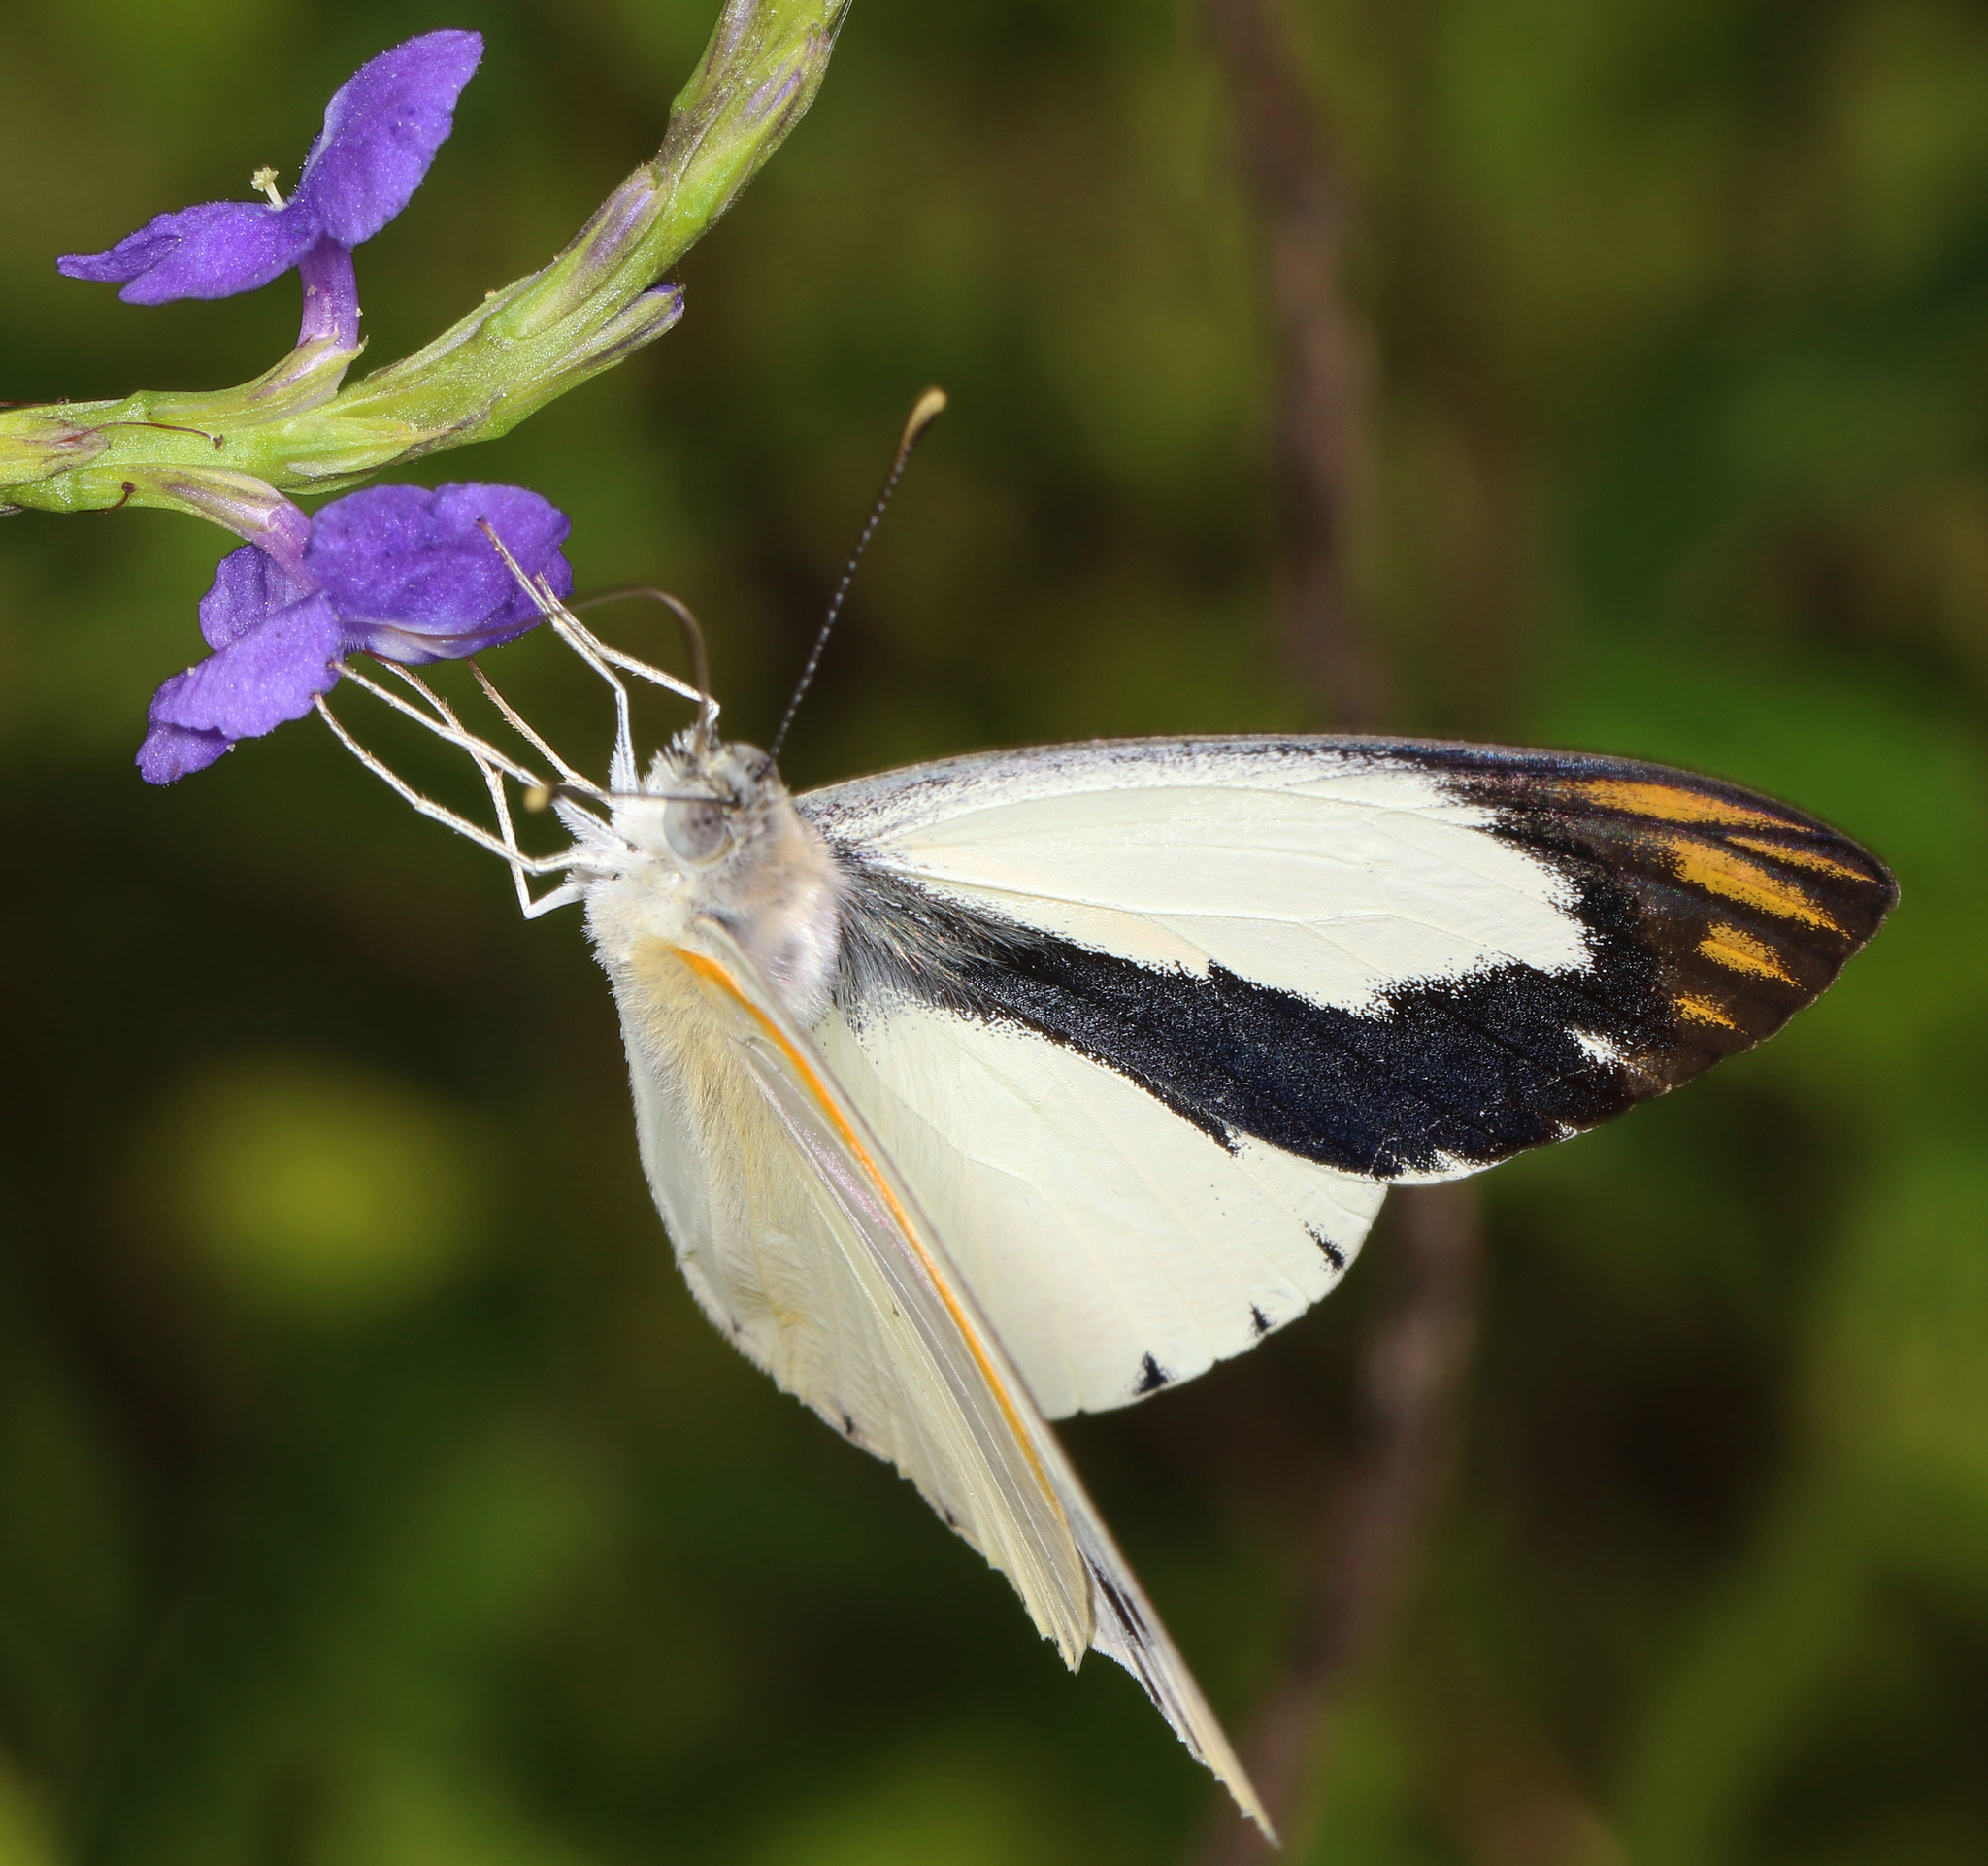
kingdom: Animalia
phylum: Arthropoda
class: Insecta
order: Lepidoptera
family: Pieridae
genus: Colotis
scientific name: Colotis eris
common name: Banded gold tip
